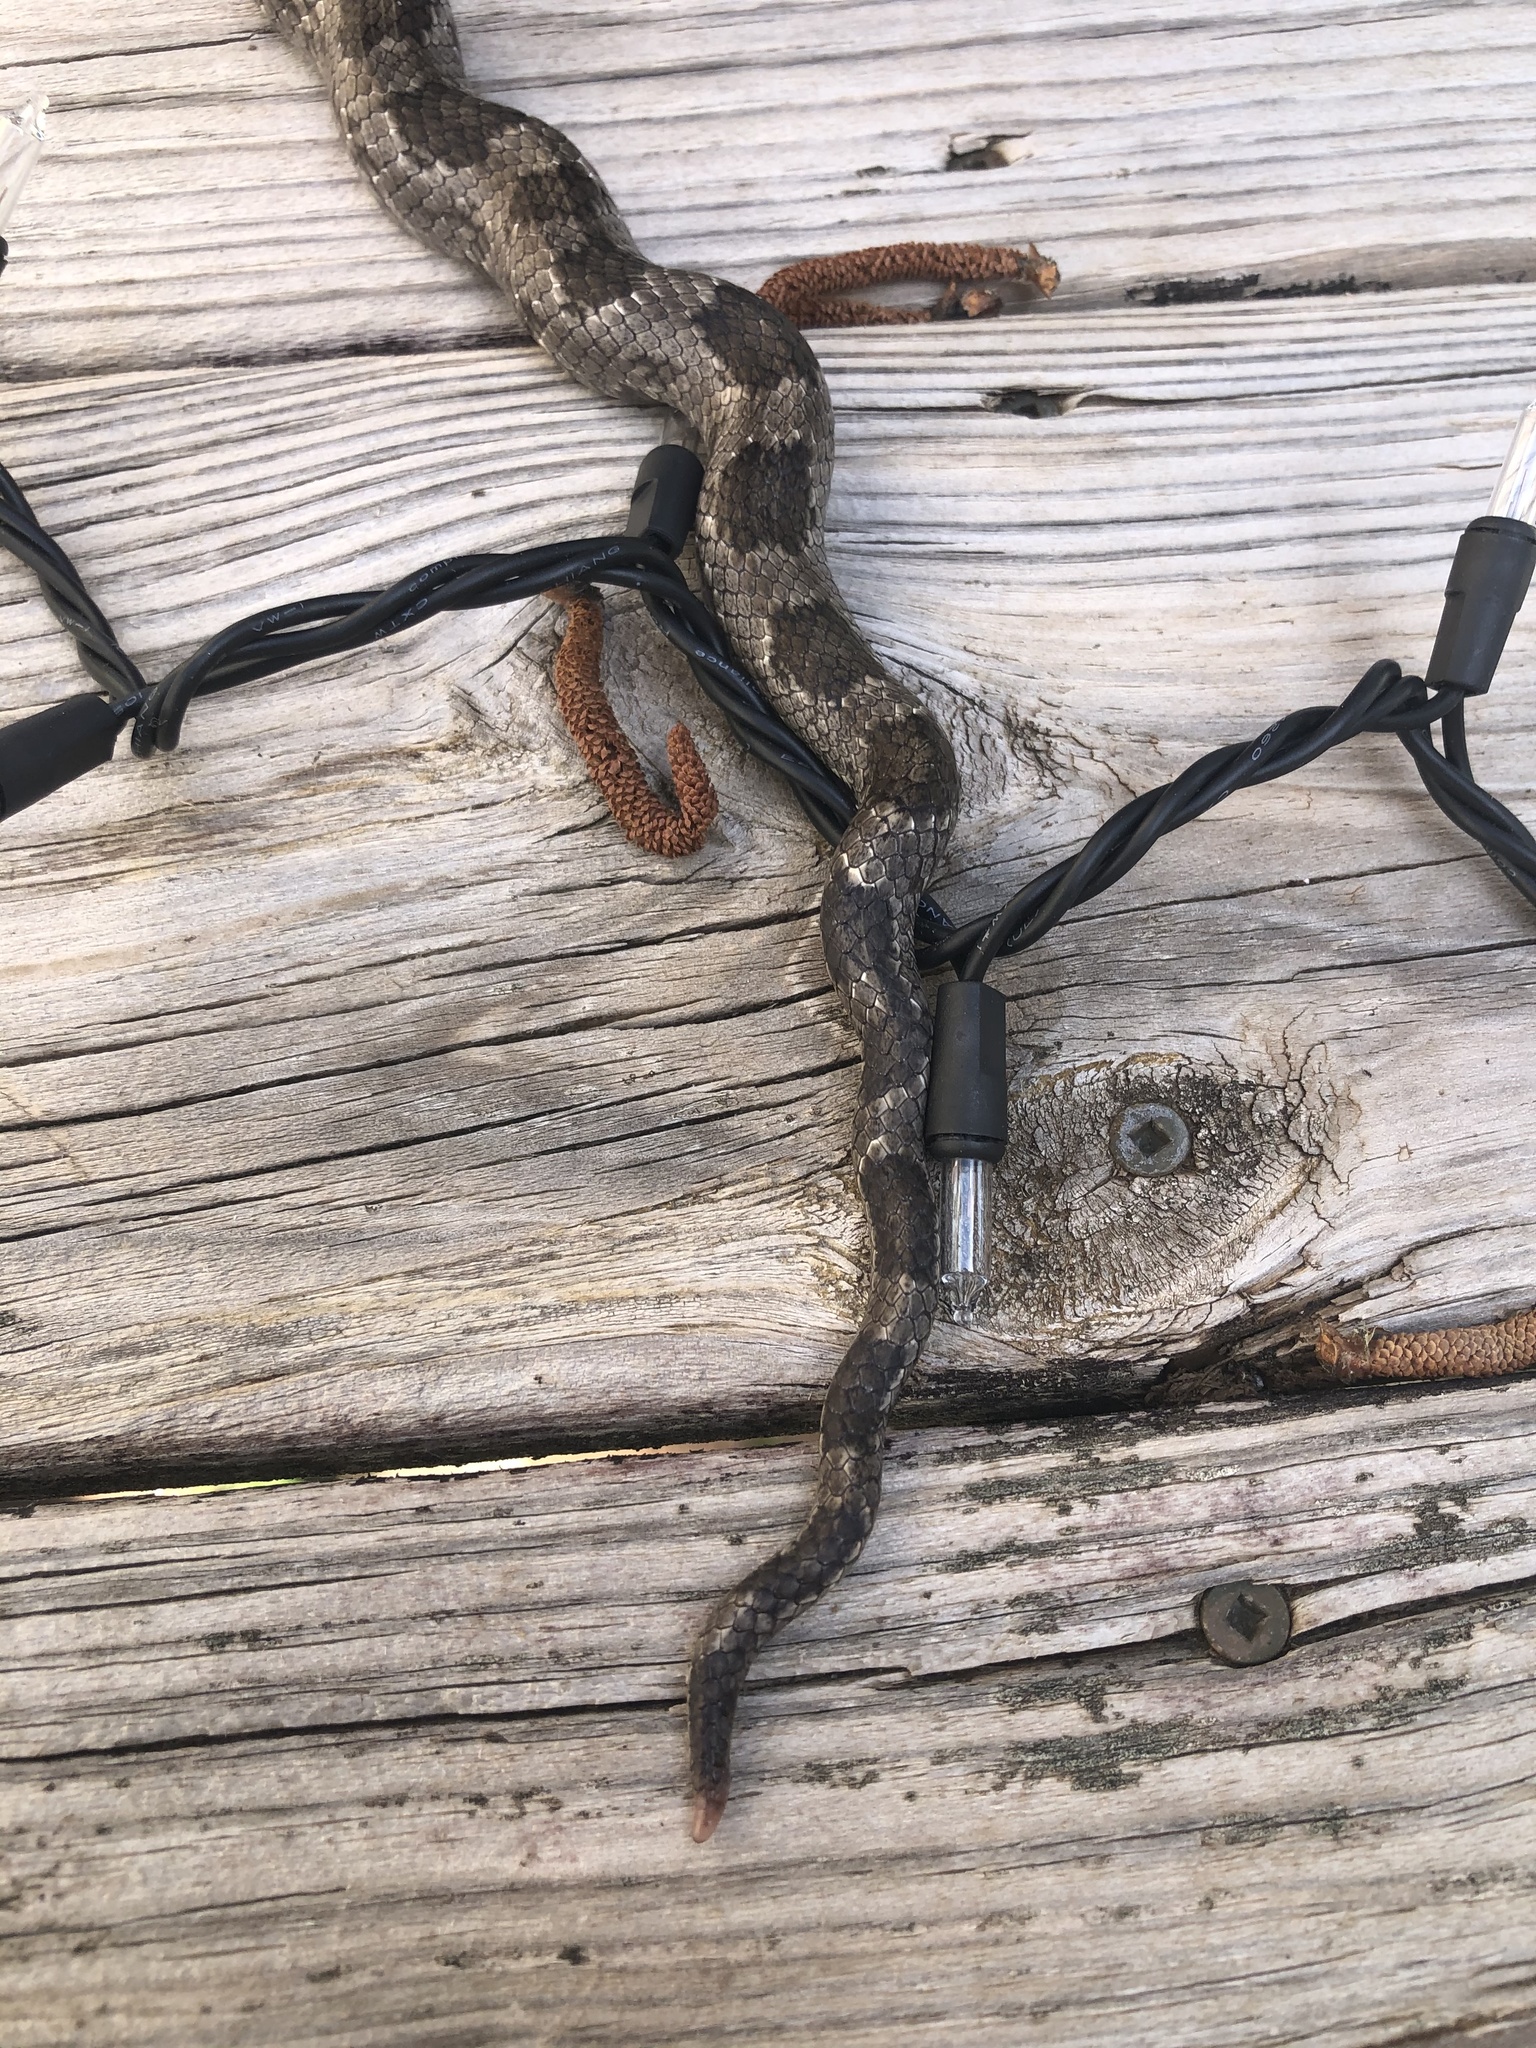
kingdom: Animalia
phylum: Chordata
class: Squamata
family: Colubridae
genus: Pantherophis
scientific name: Pantherophis spiloides
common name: Gray rat snake
